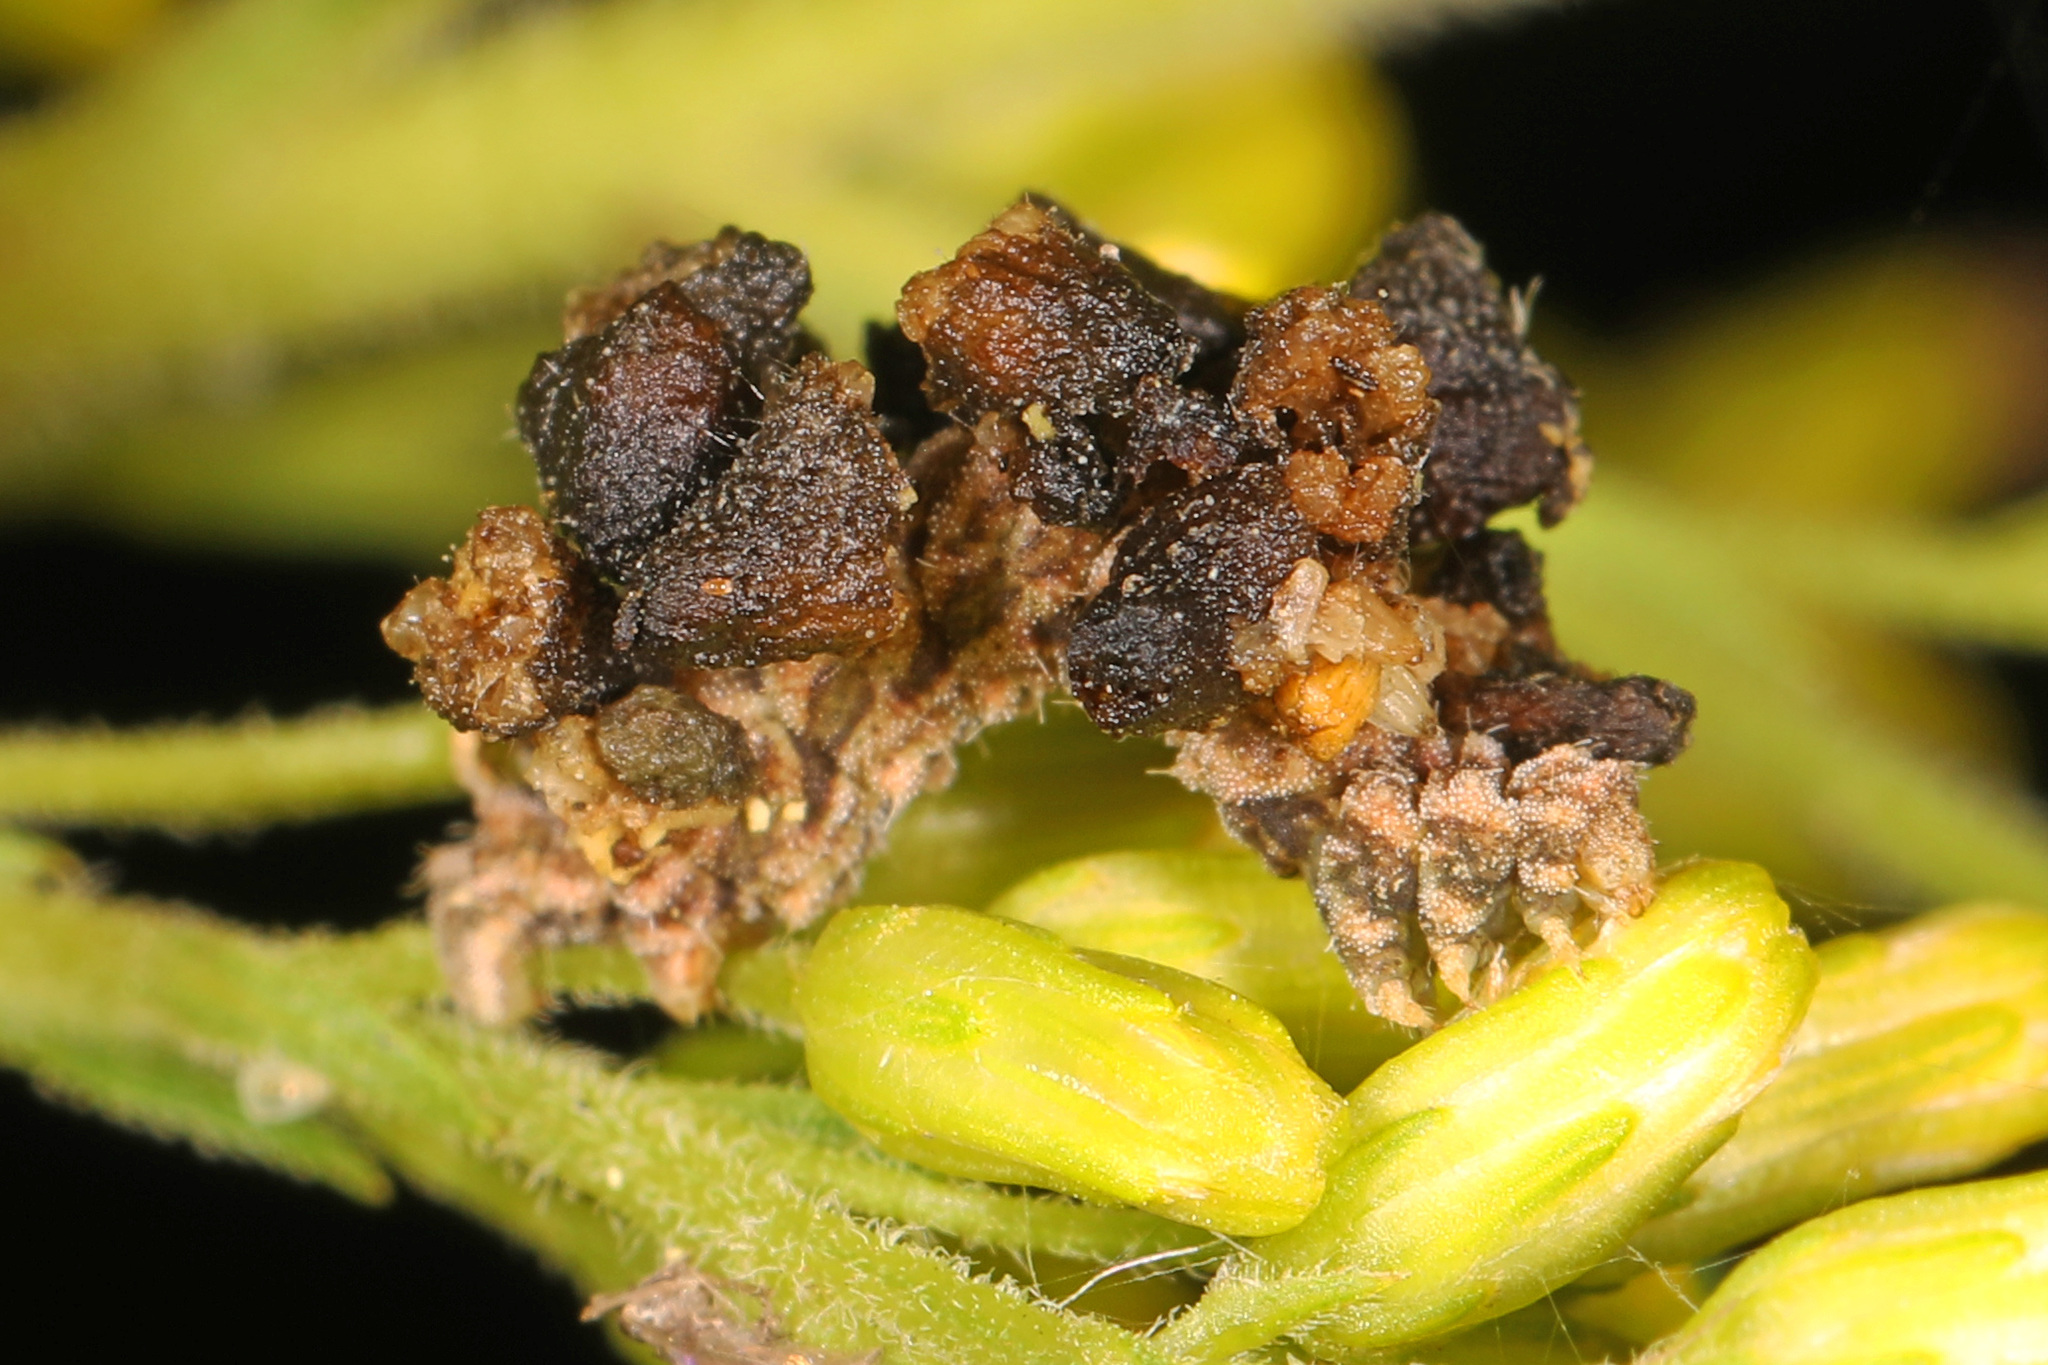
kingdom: Animalia
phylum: Arthropoda
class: Insecta
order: Lepidoptera
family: Geometridae
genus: Synchlora
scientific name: Synchlora aerata
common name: Wavy-lined emerald
